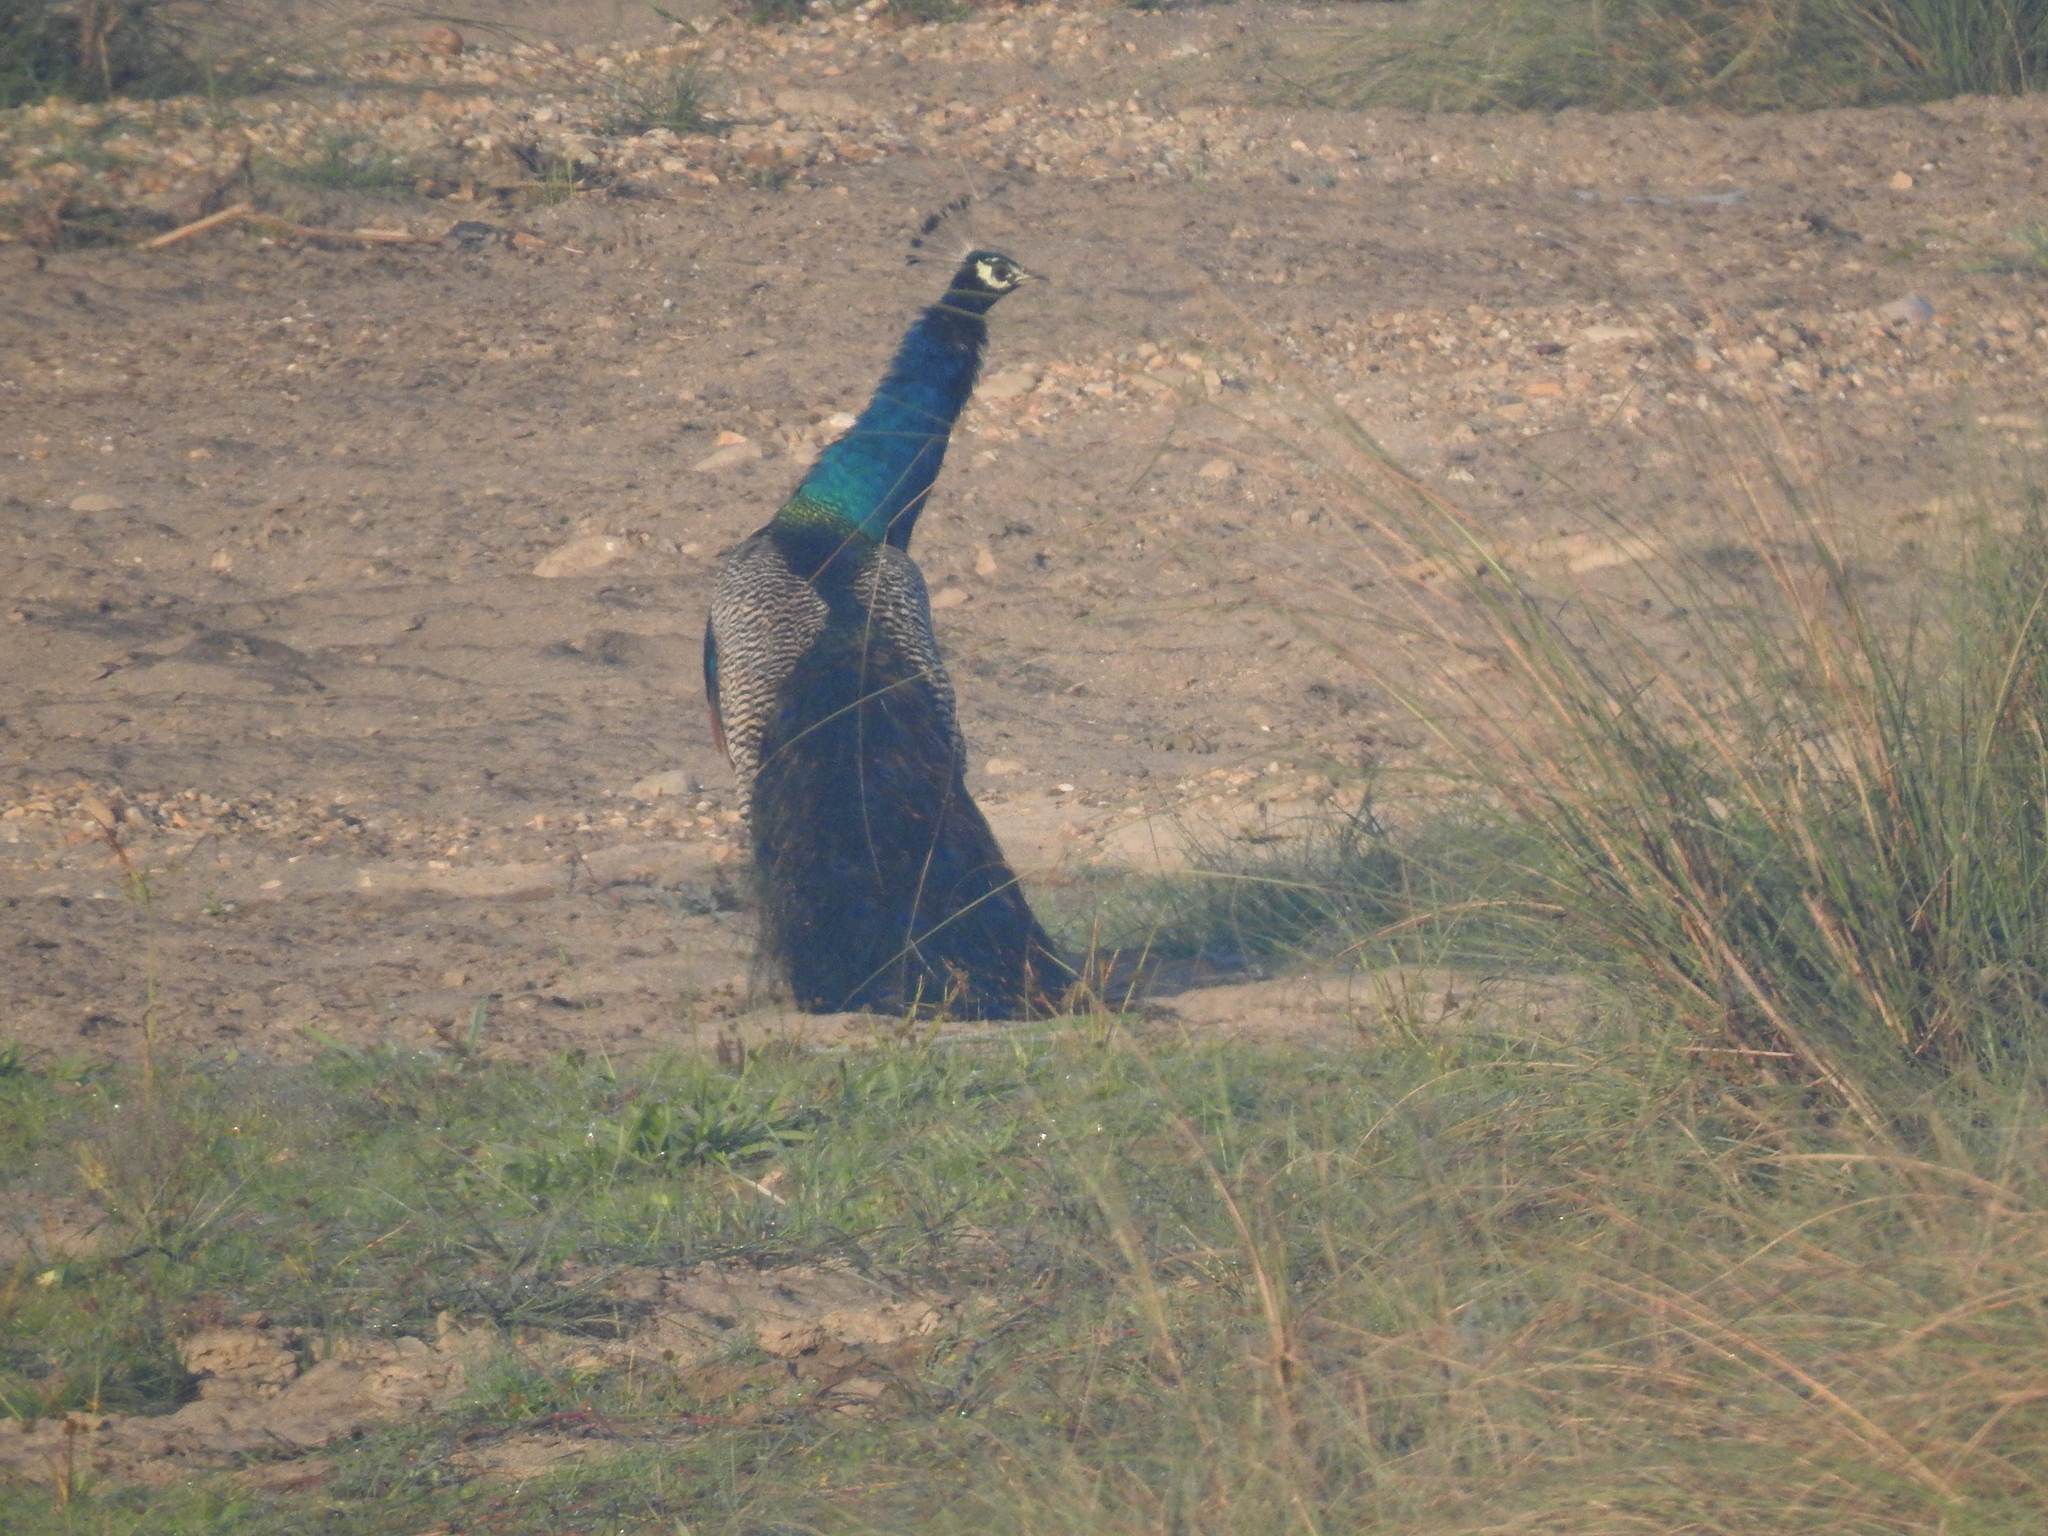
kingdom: Animalia
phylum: Chordata
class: Aves
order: Galliformes
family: Phasianidae
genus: Pavo
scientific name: Pavo cristatus
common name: Indian peafowl
